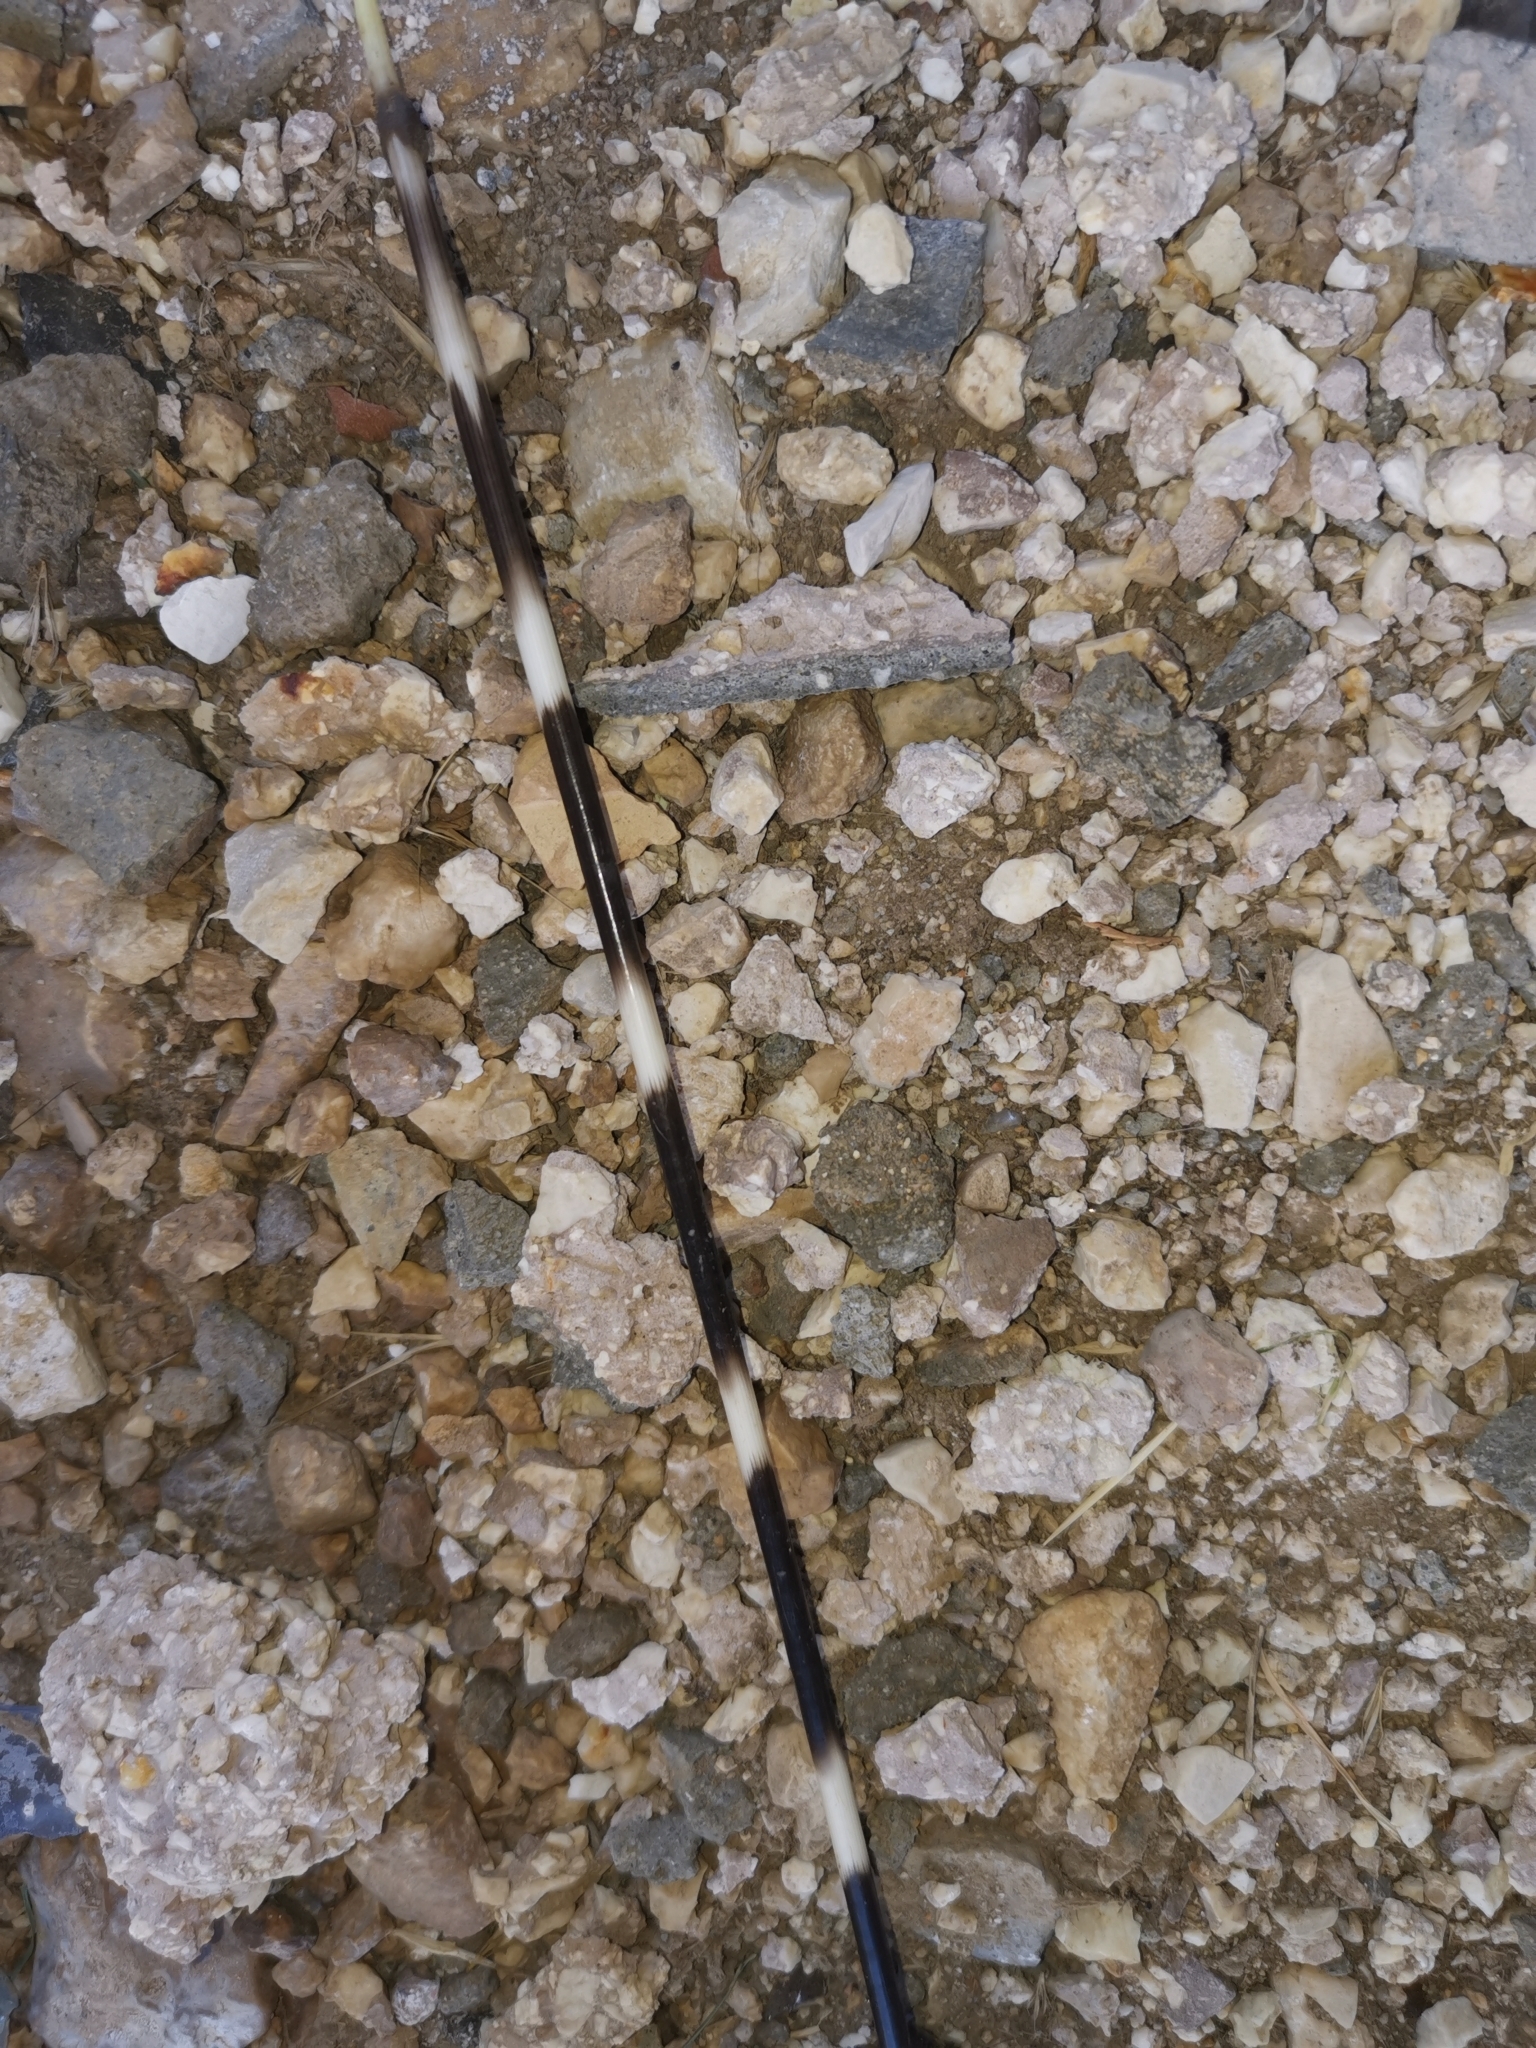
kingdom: Animalia
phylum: Chordata
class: Mammalia
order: Rodentia
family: Hystricidae
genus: Hystrix
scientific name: Hystrix cristata
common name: Crested porcupine
